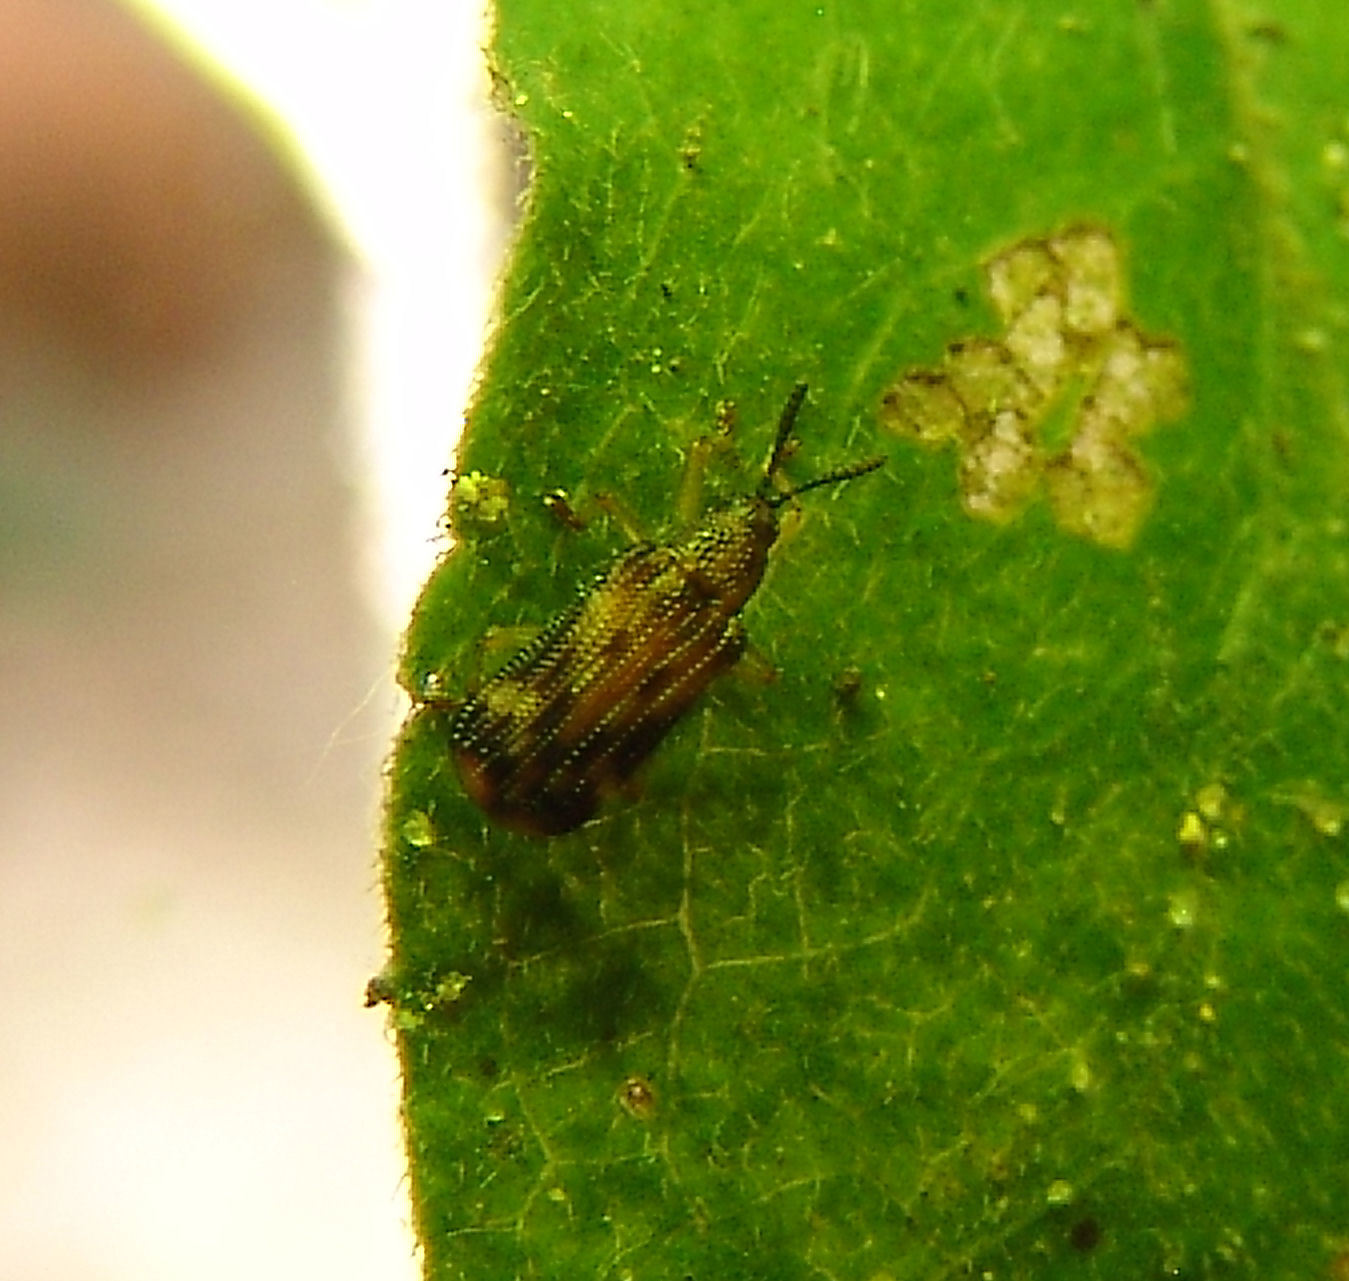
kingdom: Animalia
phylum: Arthropoda
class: Insecta
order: Coleoptera
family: Chrysomelidae
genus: Sumitrosis
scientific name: Sumitrosis inaequalis
